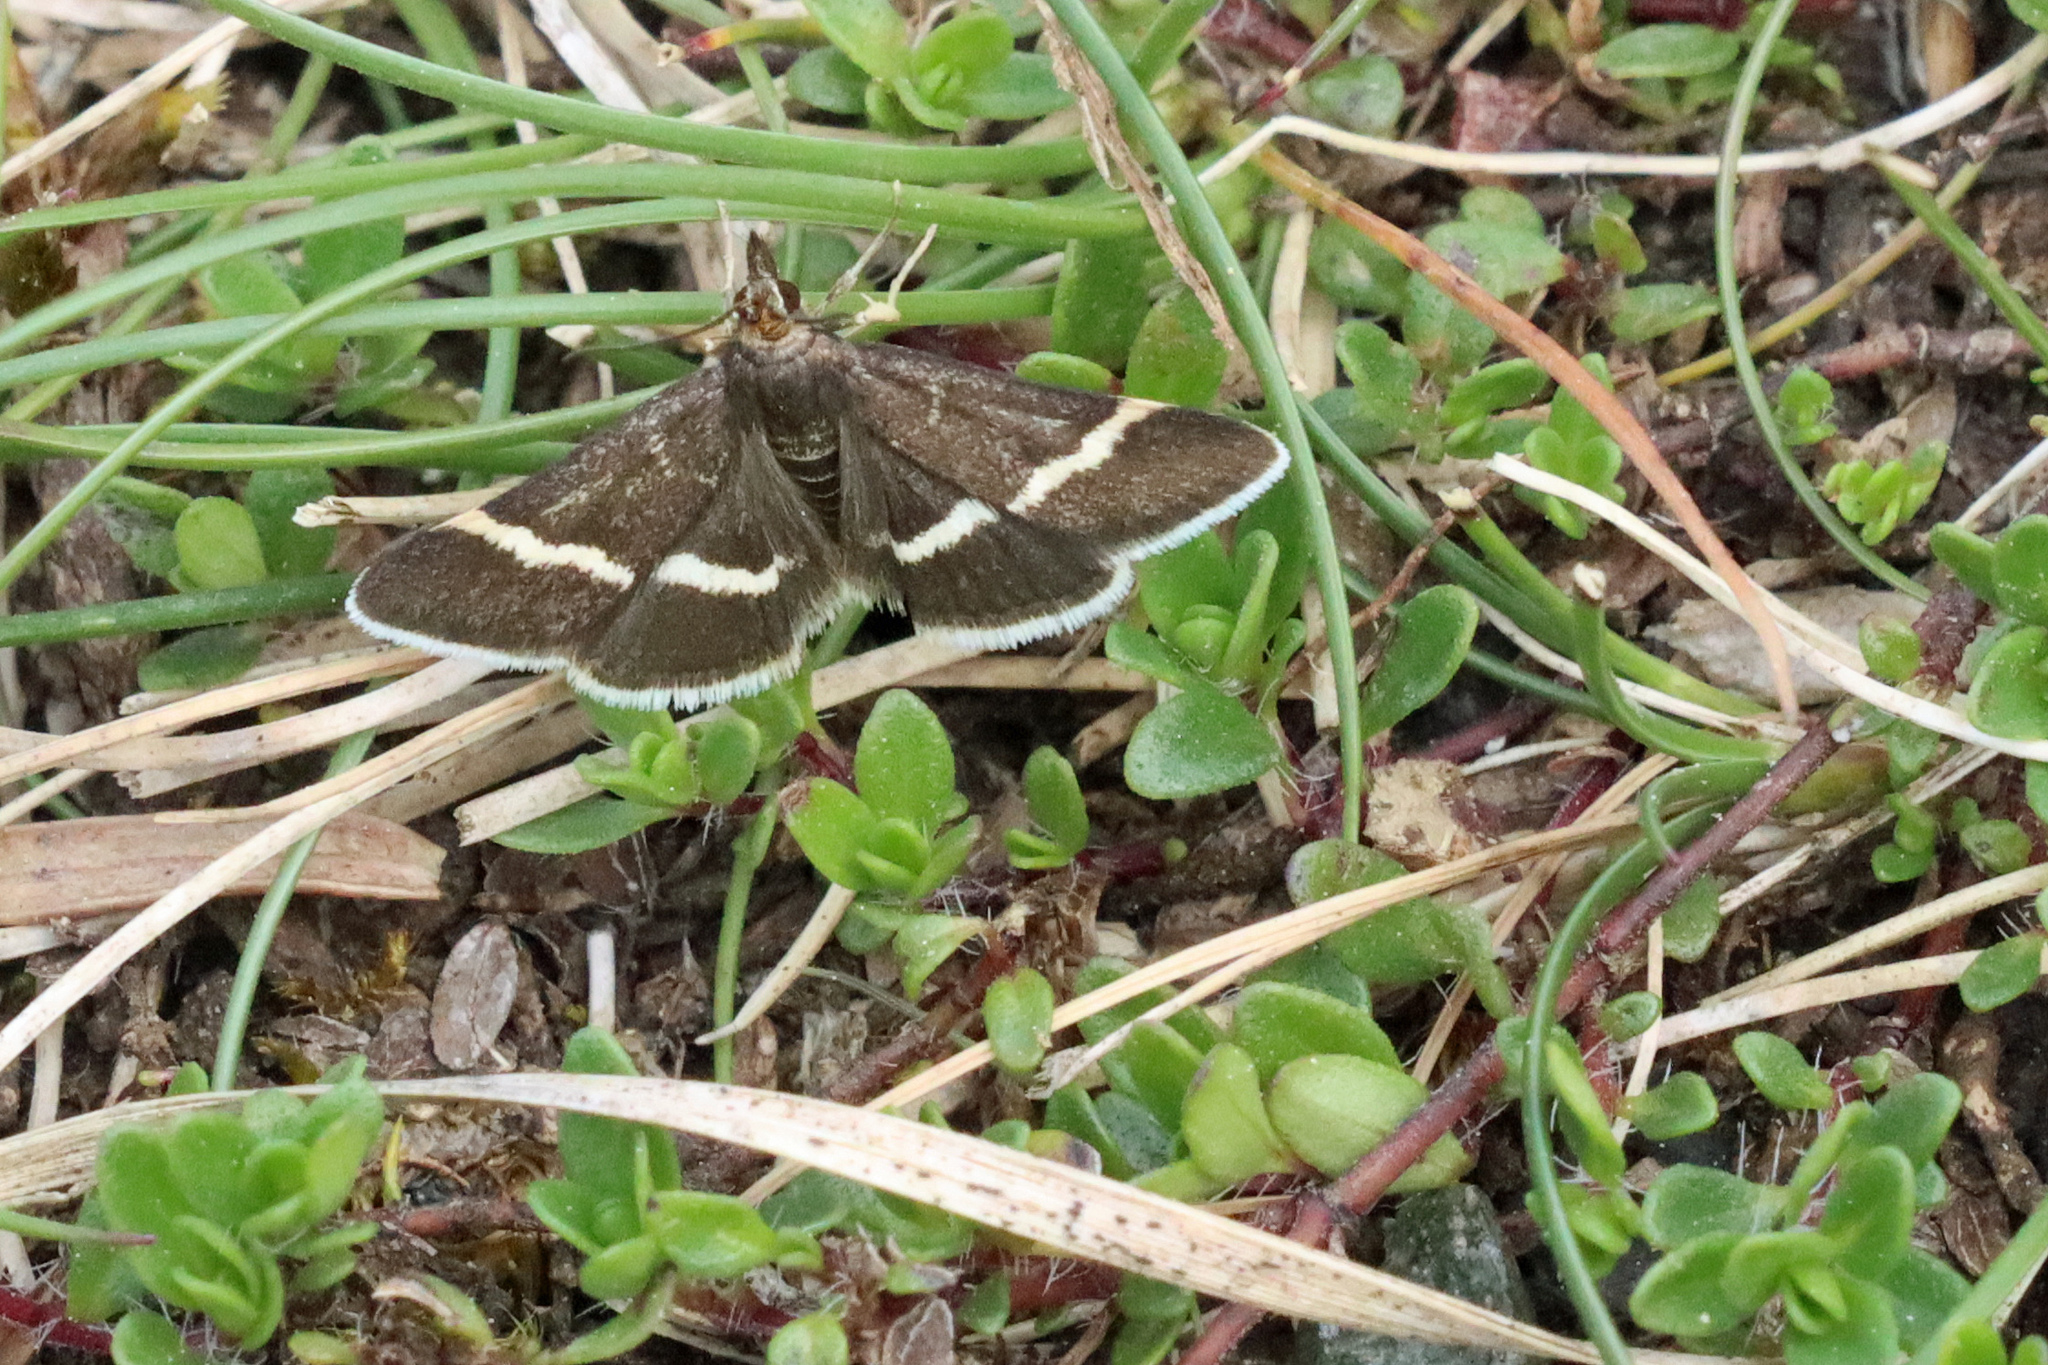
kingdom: Animalia
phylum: Arthropoda
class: Insecta
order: Lepidoptera
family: Crambidae
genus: Pyrausta
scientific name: Pyrausta cingulata
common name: Silver-barred sable
